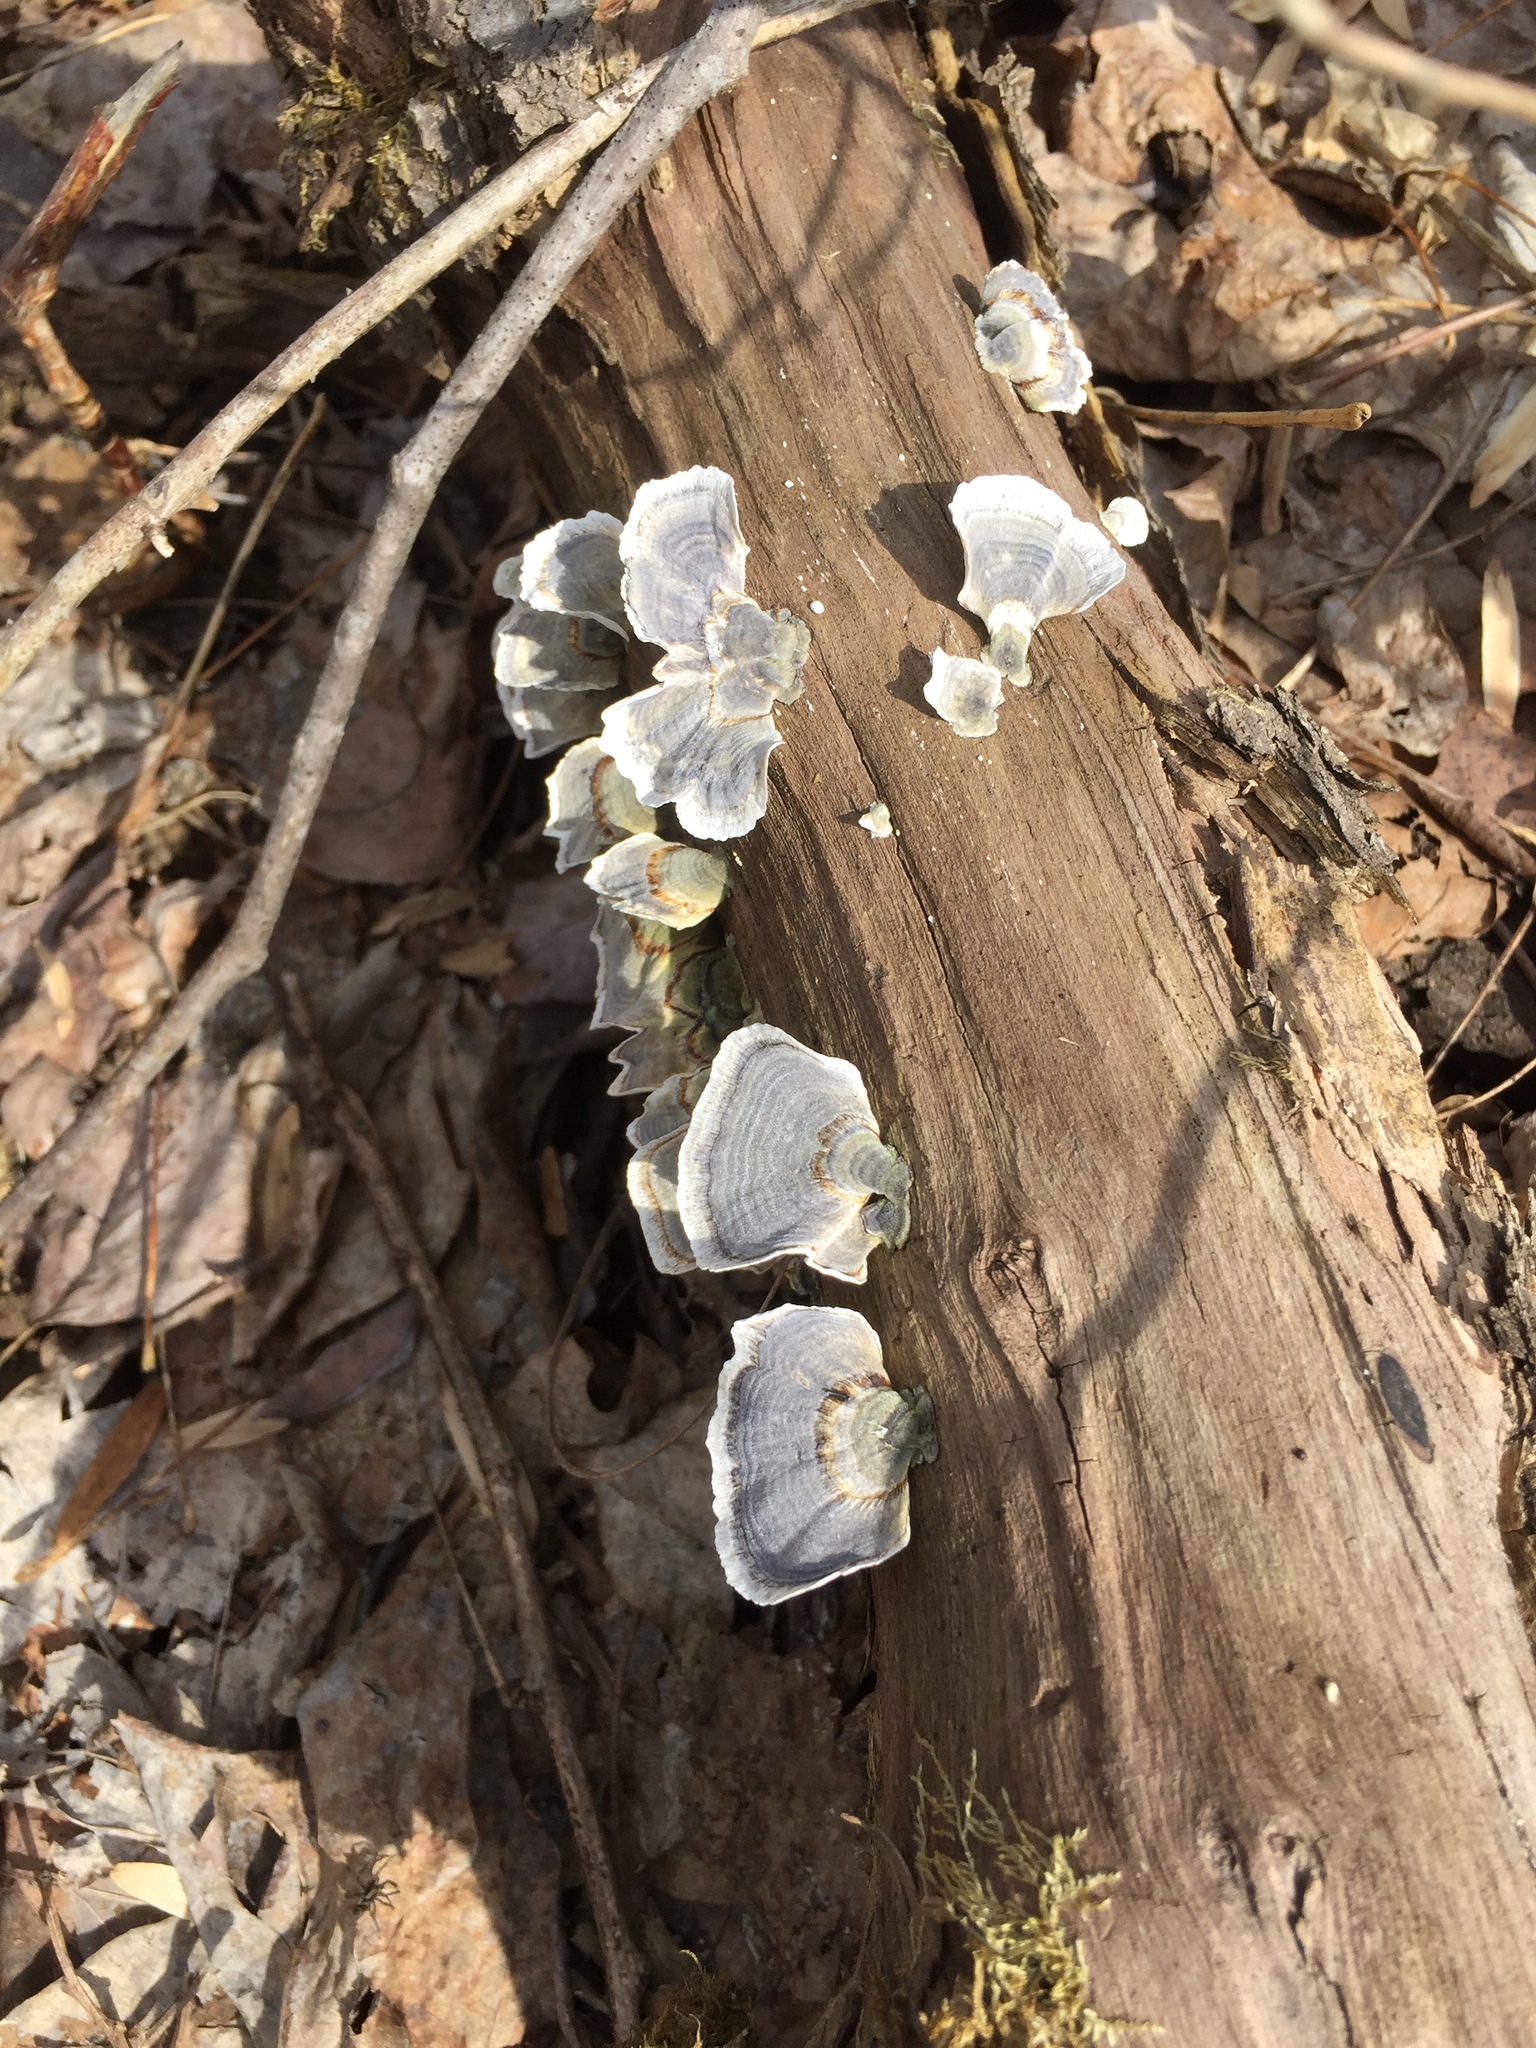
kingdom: Fungi
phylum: Basidiomycota
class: Agaricomycetes
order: Polyporales
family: Polyporaceae
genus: Trametes
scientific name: Trametes versicolor
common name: Turkeytail
